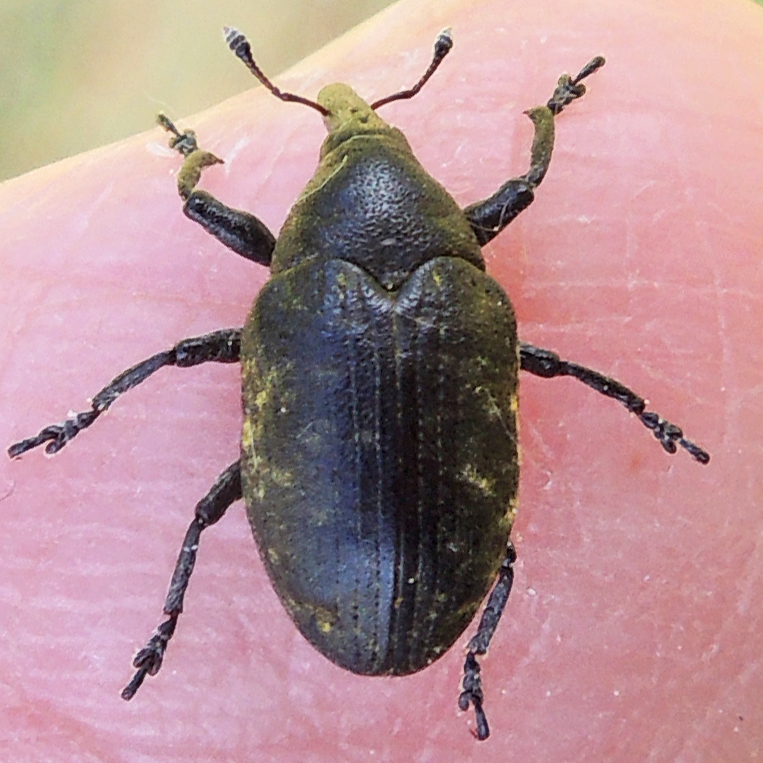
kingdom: Animalia
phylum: Arthropoda
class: Insecta
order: Coleoptera
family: Curculionidae
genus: Larinus
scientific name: Larinus turbinatus
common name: Weevil
